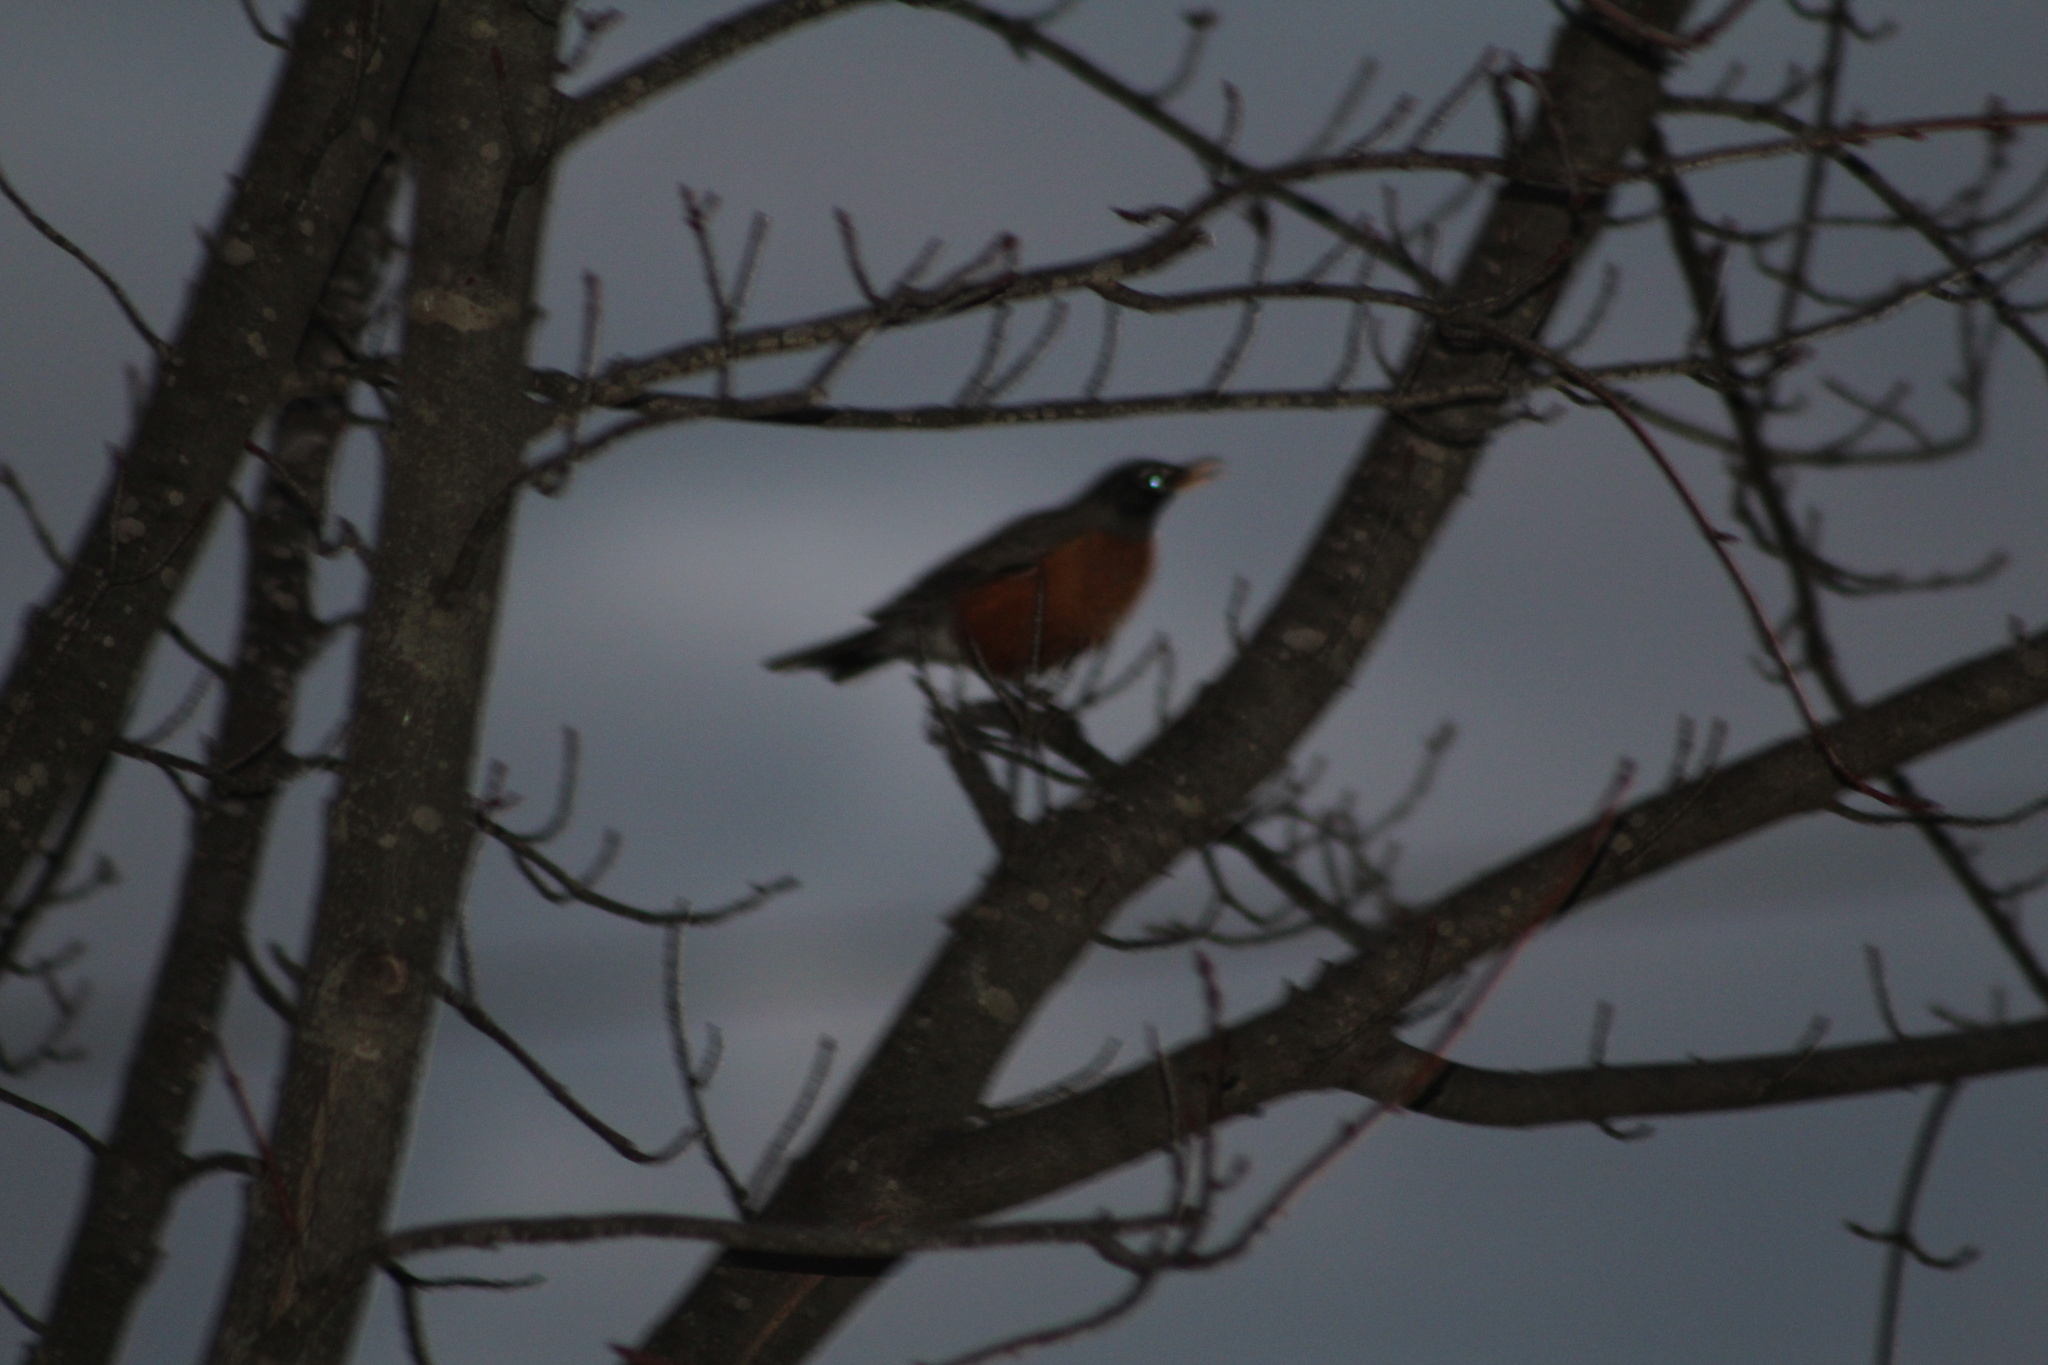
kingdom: Animalia
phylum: Chordata
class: Aves
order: Passeriformes
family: Turdidae
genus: Turdus
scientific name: Turdus migratorius
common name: American robin
